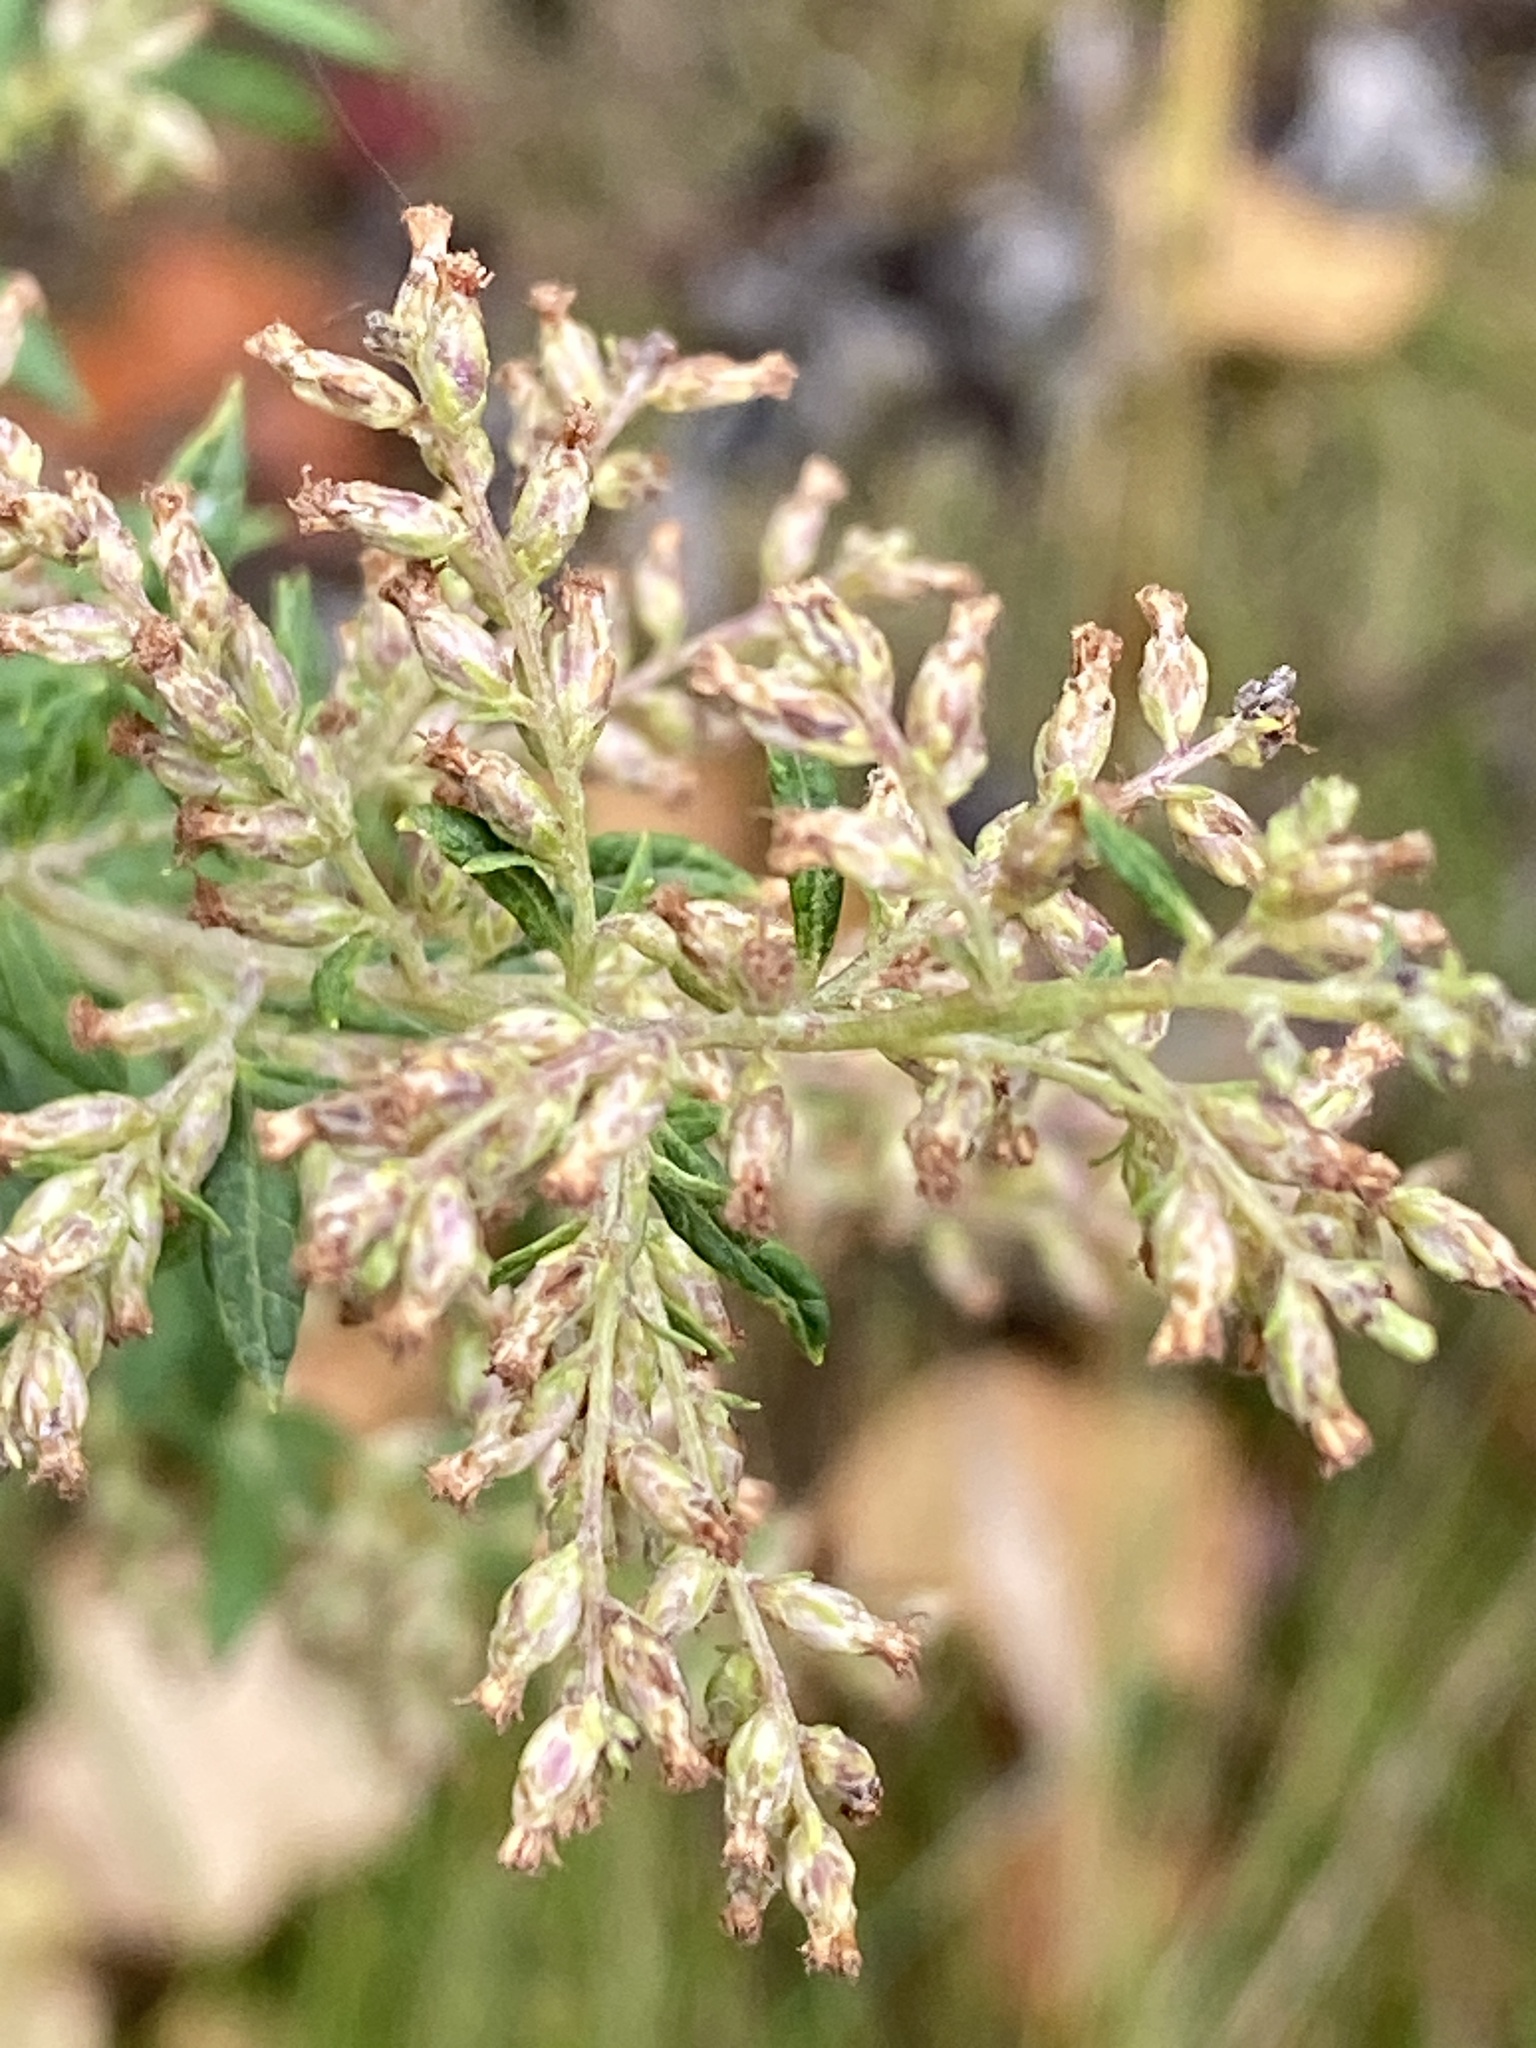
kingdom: Plantae
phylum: Tracheophyta
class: Magnoliopsida
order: Asterales
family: Asteraceae
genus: Artemisia
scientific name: Artemisia vulgaris
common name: Mugwort
